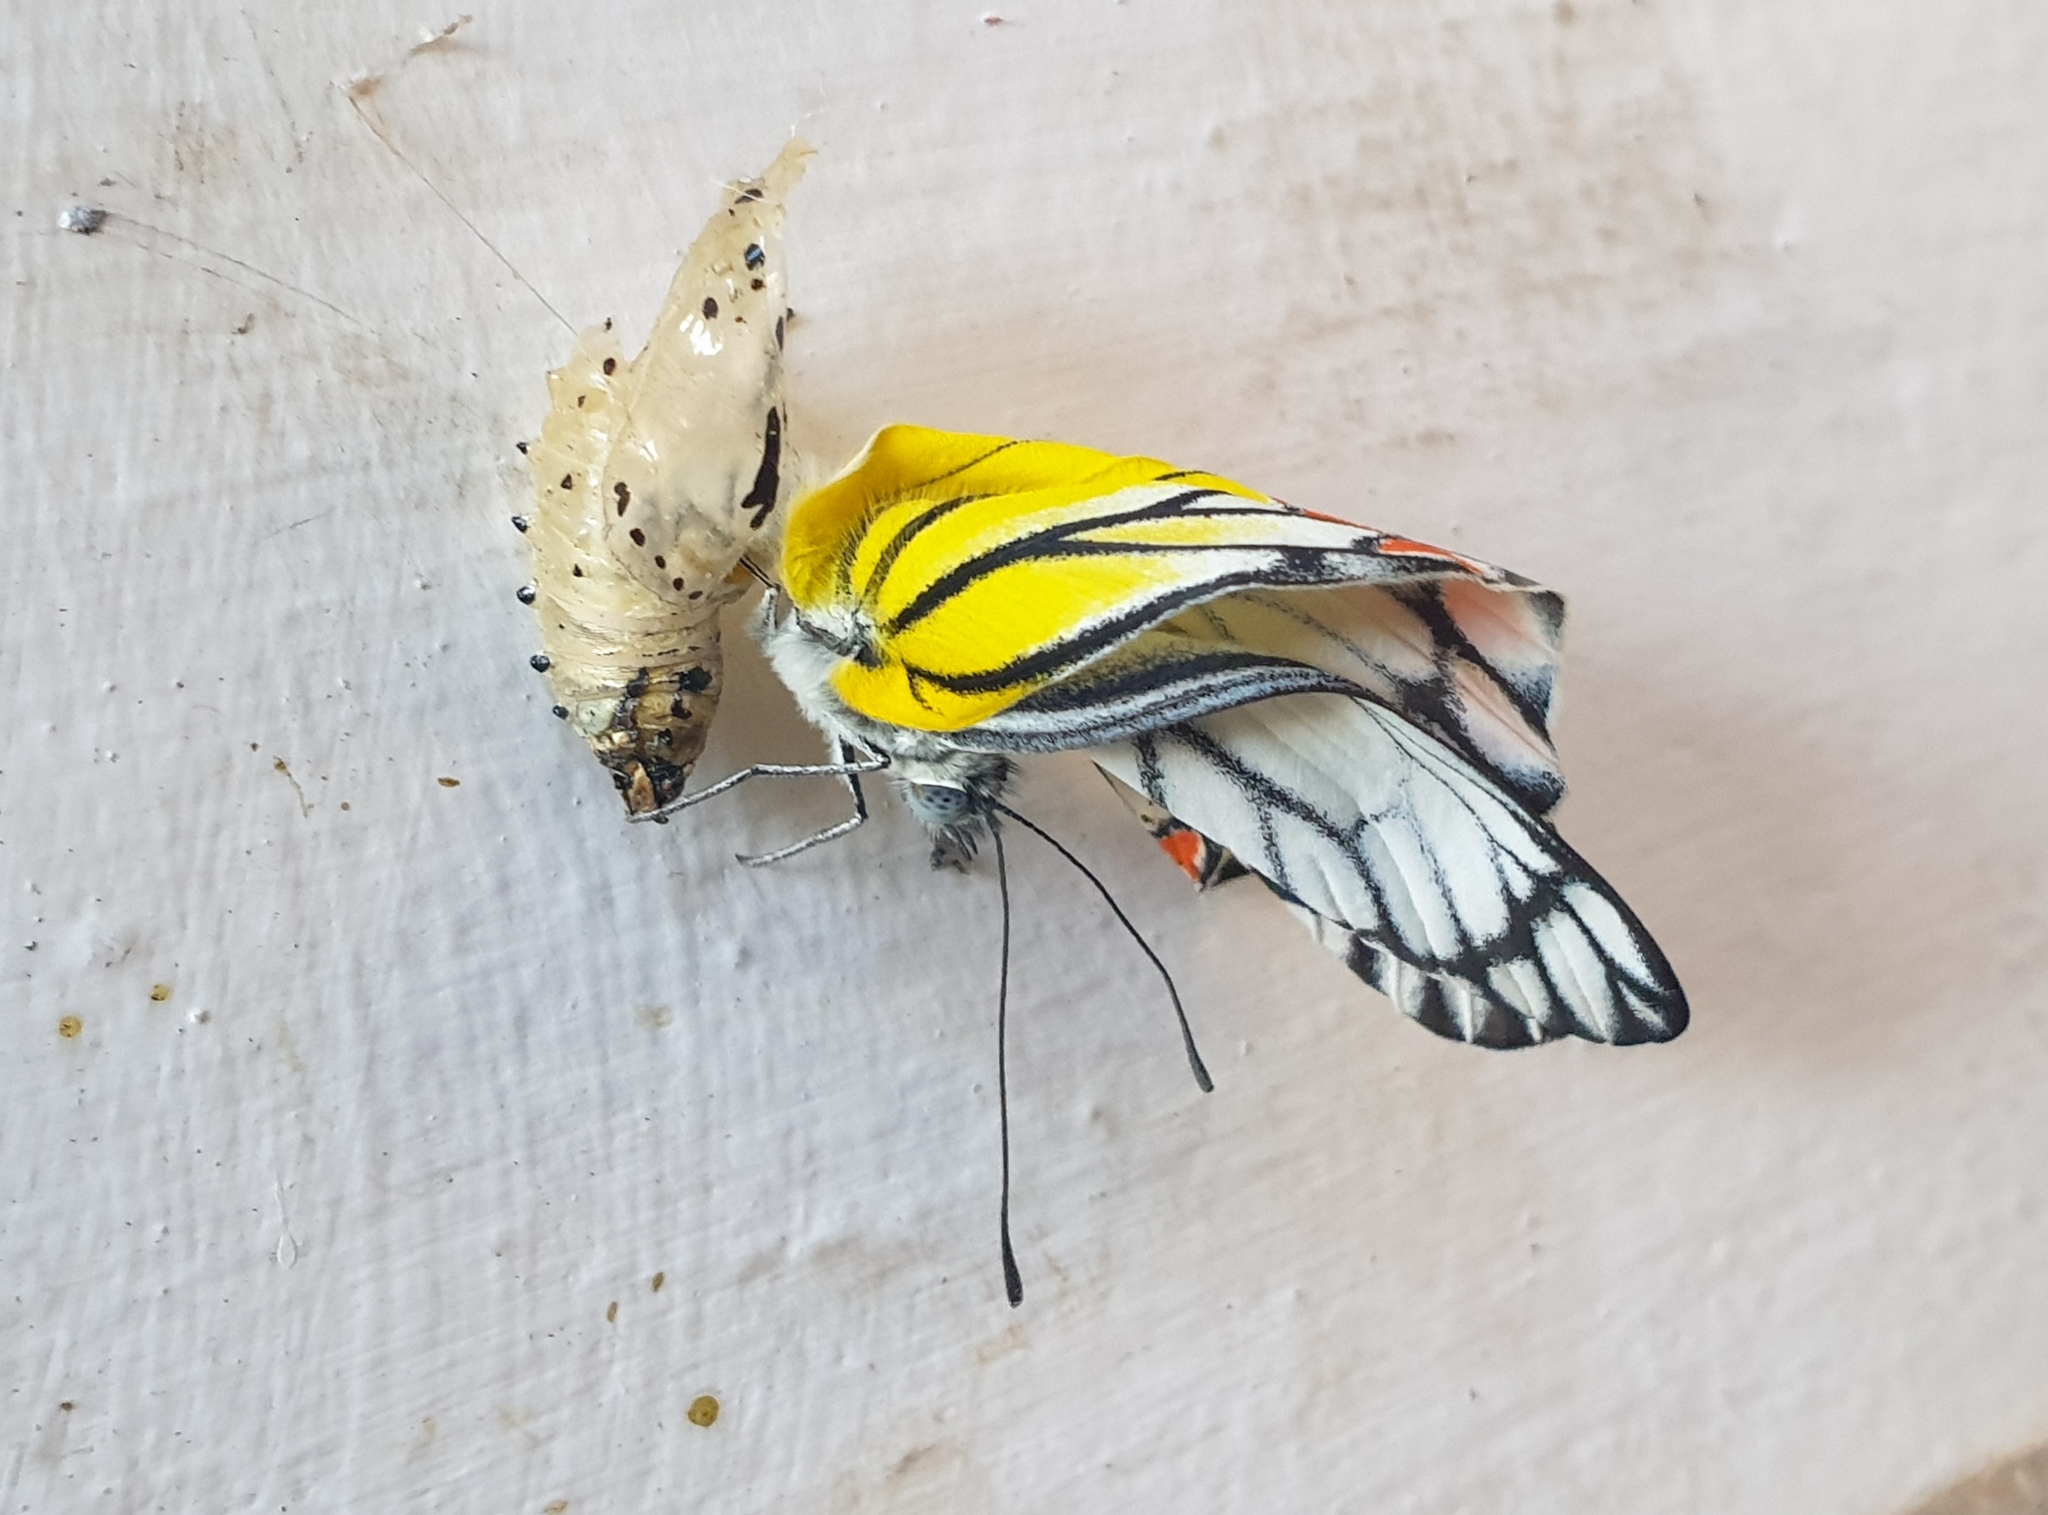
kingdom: Animalia
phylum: Arthropoda
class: Insecta
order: Lepidoptera
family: Pieridae
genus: Delias
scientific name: Delias eucharis
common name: Common jezebel
